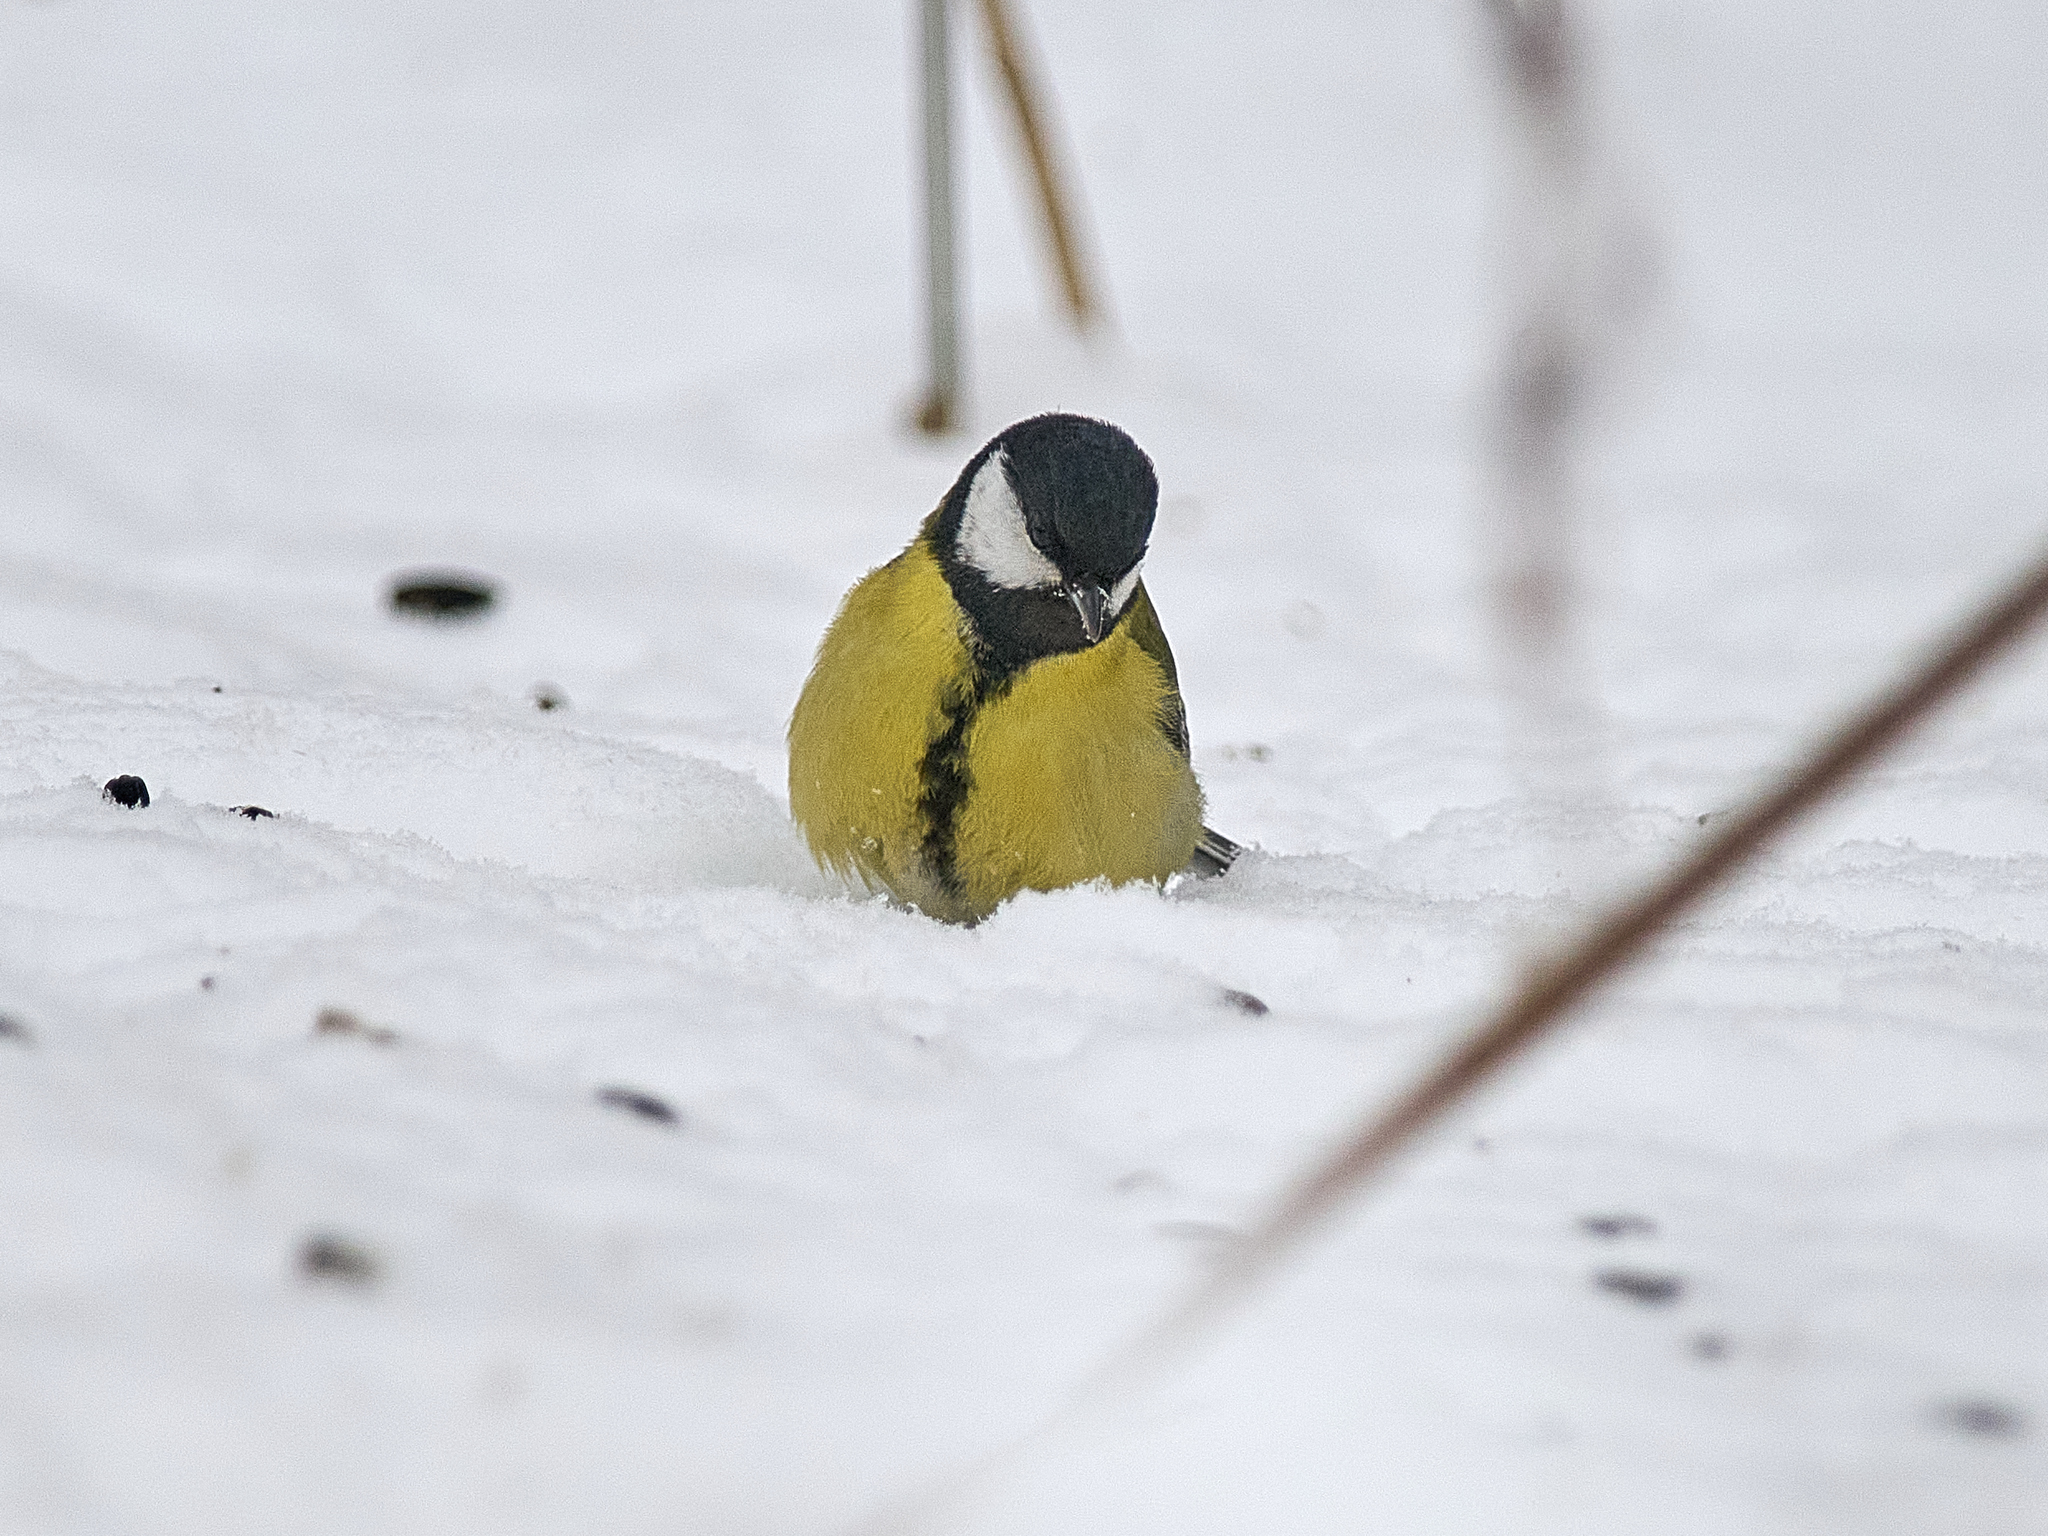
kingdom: Animalia
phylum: Chordata
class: Aves
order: Passeriformes
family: Paridae
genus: Parus
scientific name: Parus major
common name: Great tit
